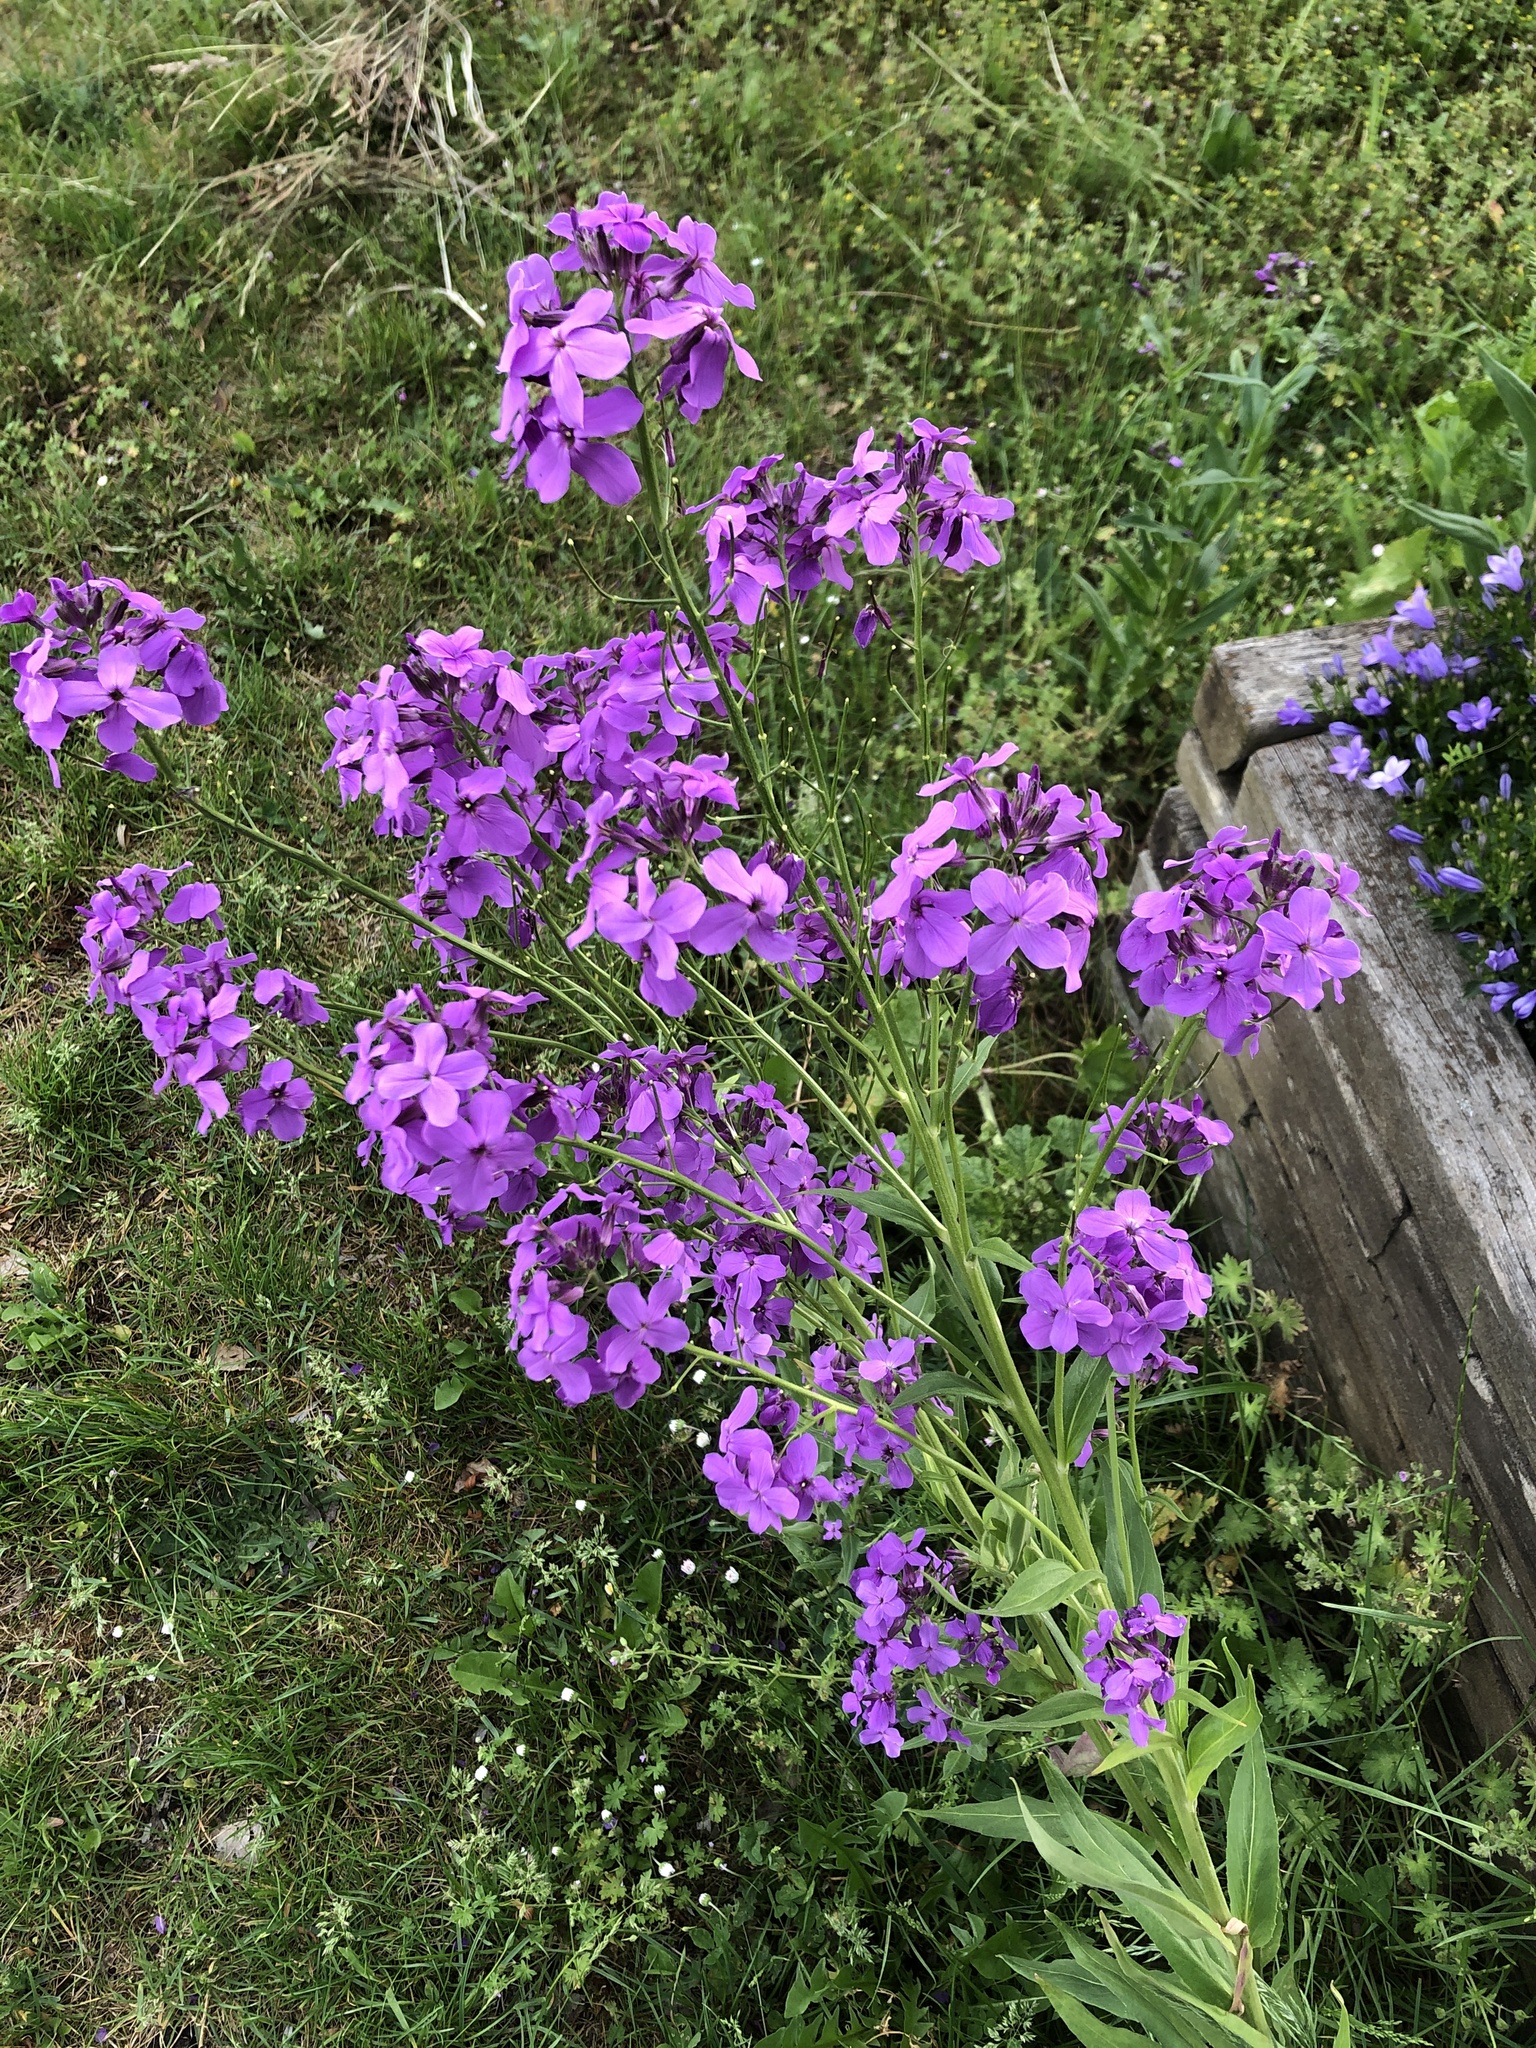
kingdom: Plantae
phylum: Tracheophyta
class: Magnoliopsida
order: Brassicales
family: Brassicaceae
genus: Hesperis
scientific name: Hesperis matronalis
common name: Dame's-violet
